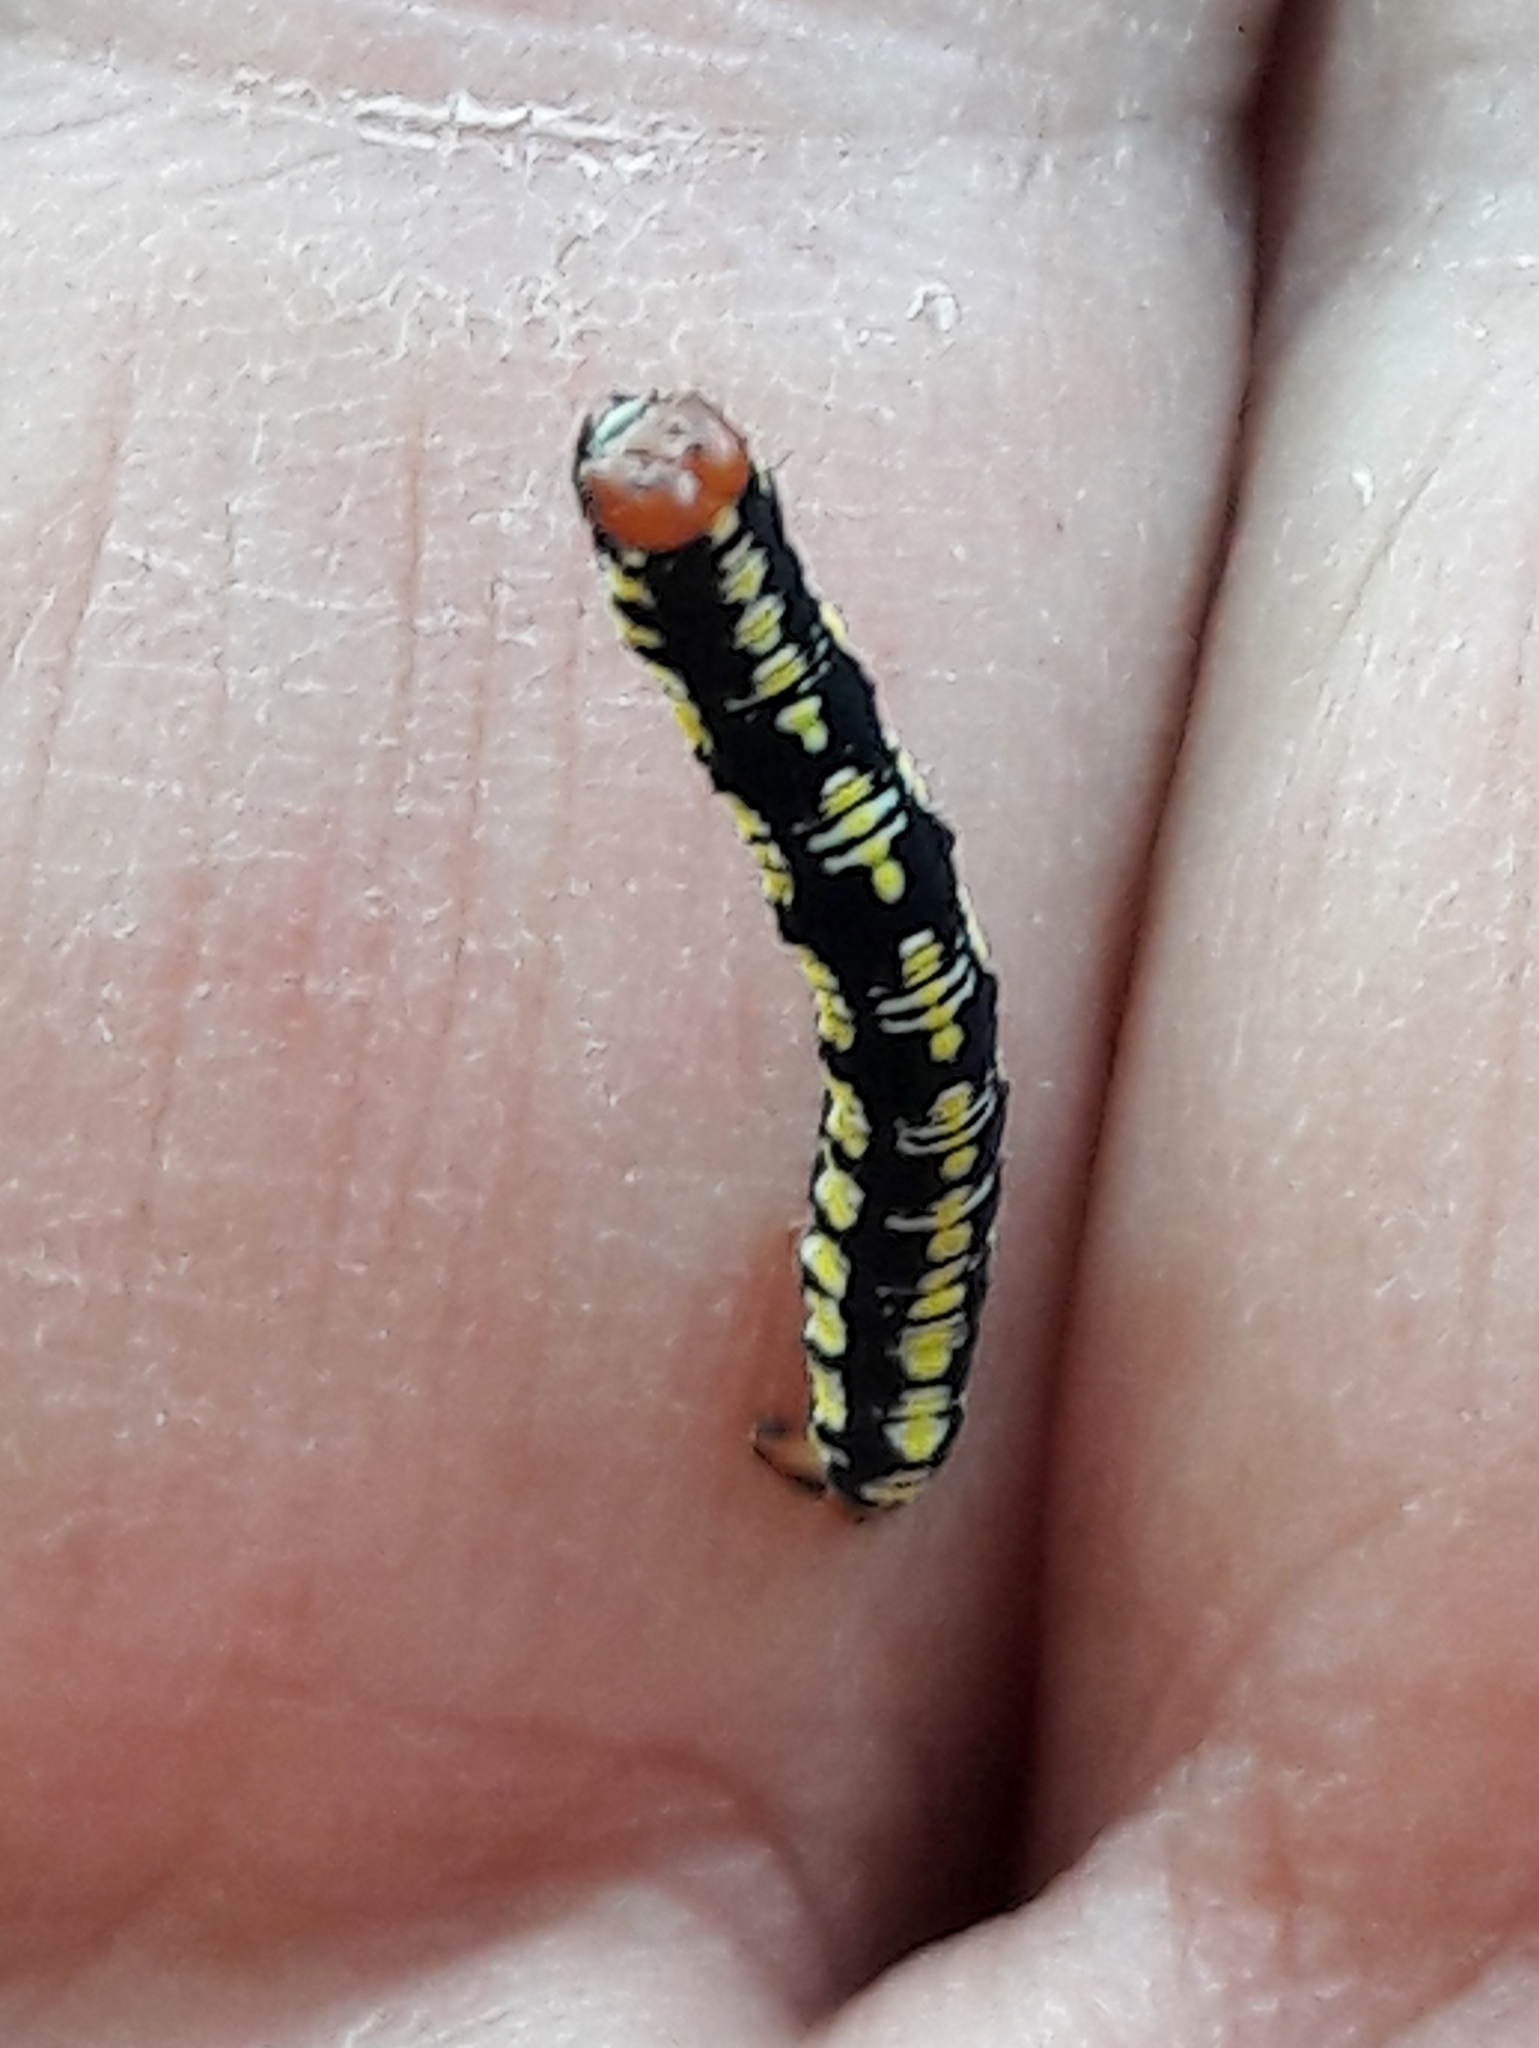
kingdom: Animalia
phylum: Arthropoda
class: Insecta
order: Lepidoptera
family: Geometridae
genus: Melanchroia
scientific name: Melanchroia chephise
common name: White-tipped black
